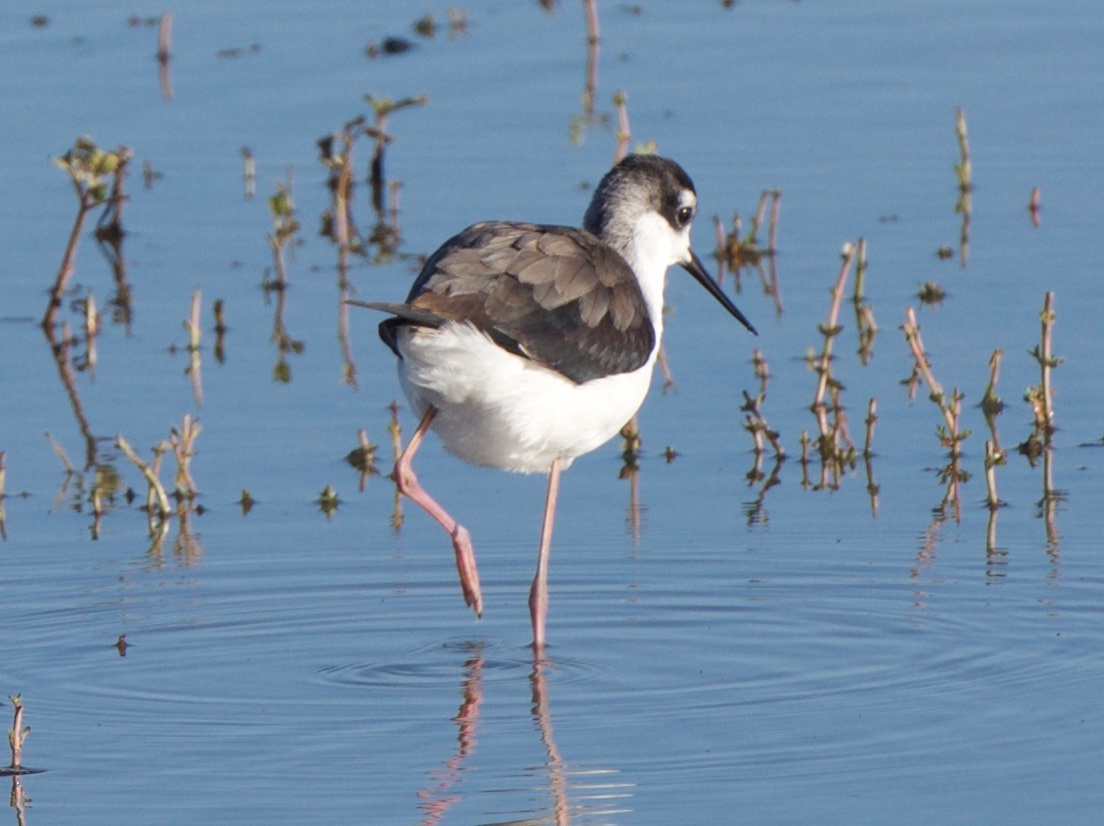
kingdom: Animalia
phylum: Chordata
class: Aves
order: Charadriiformes
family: Recurvirostridae
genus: Himantopus
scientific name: Himantopus mexicanus
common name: Black-necked stilt
